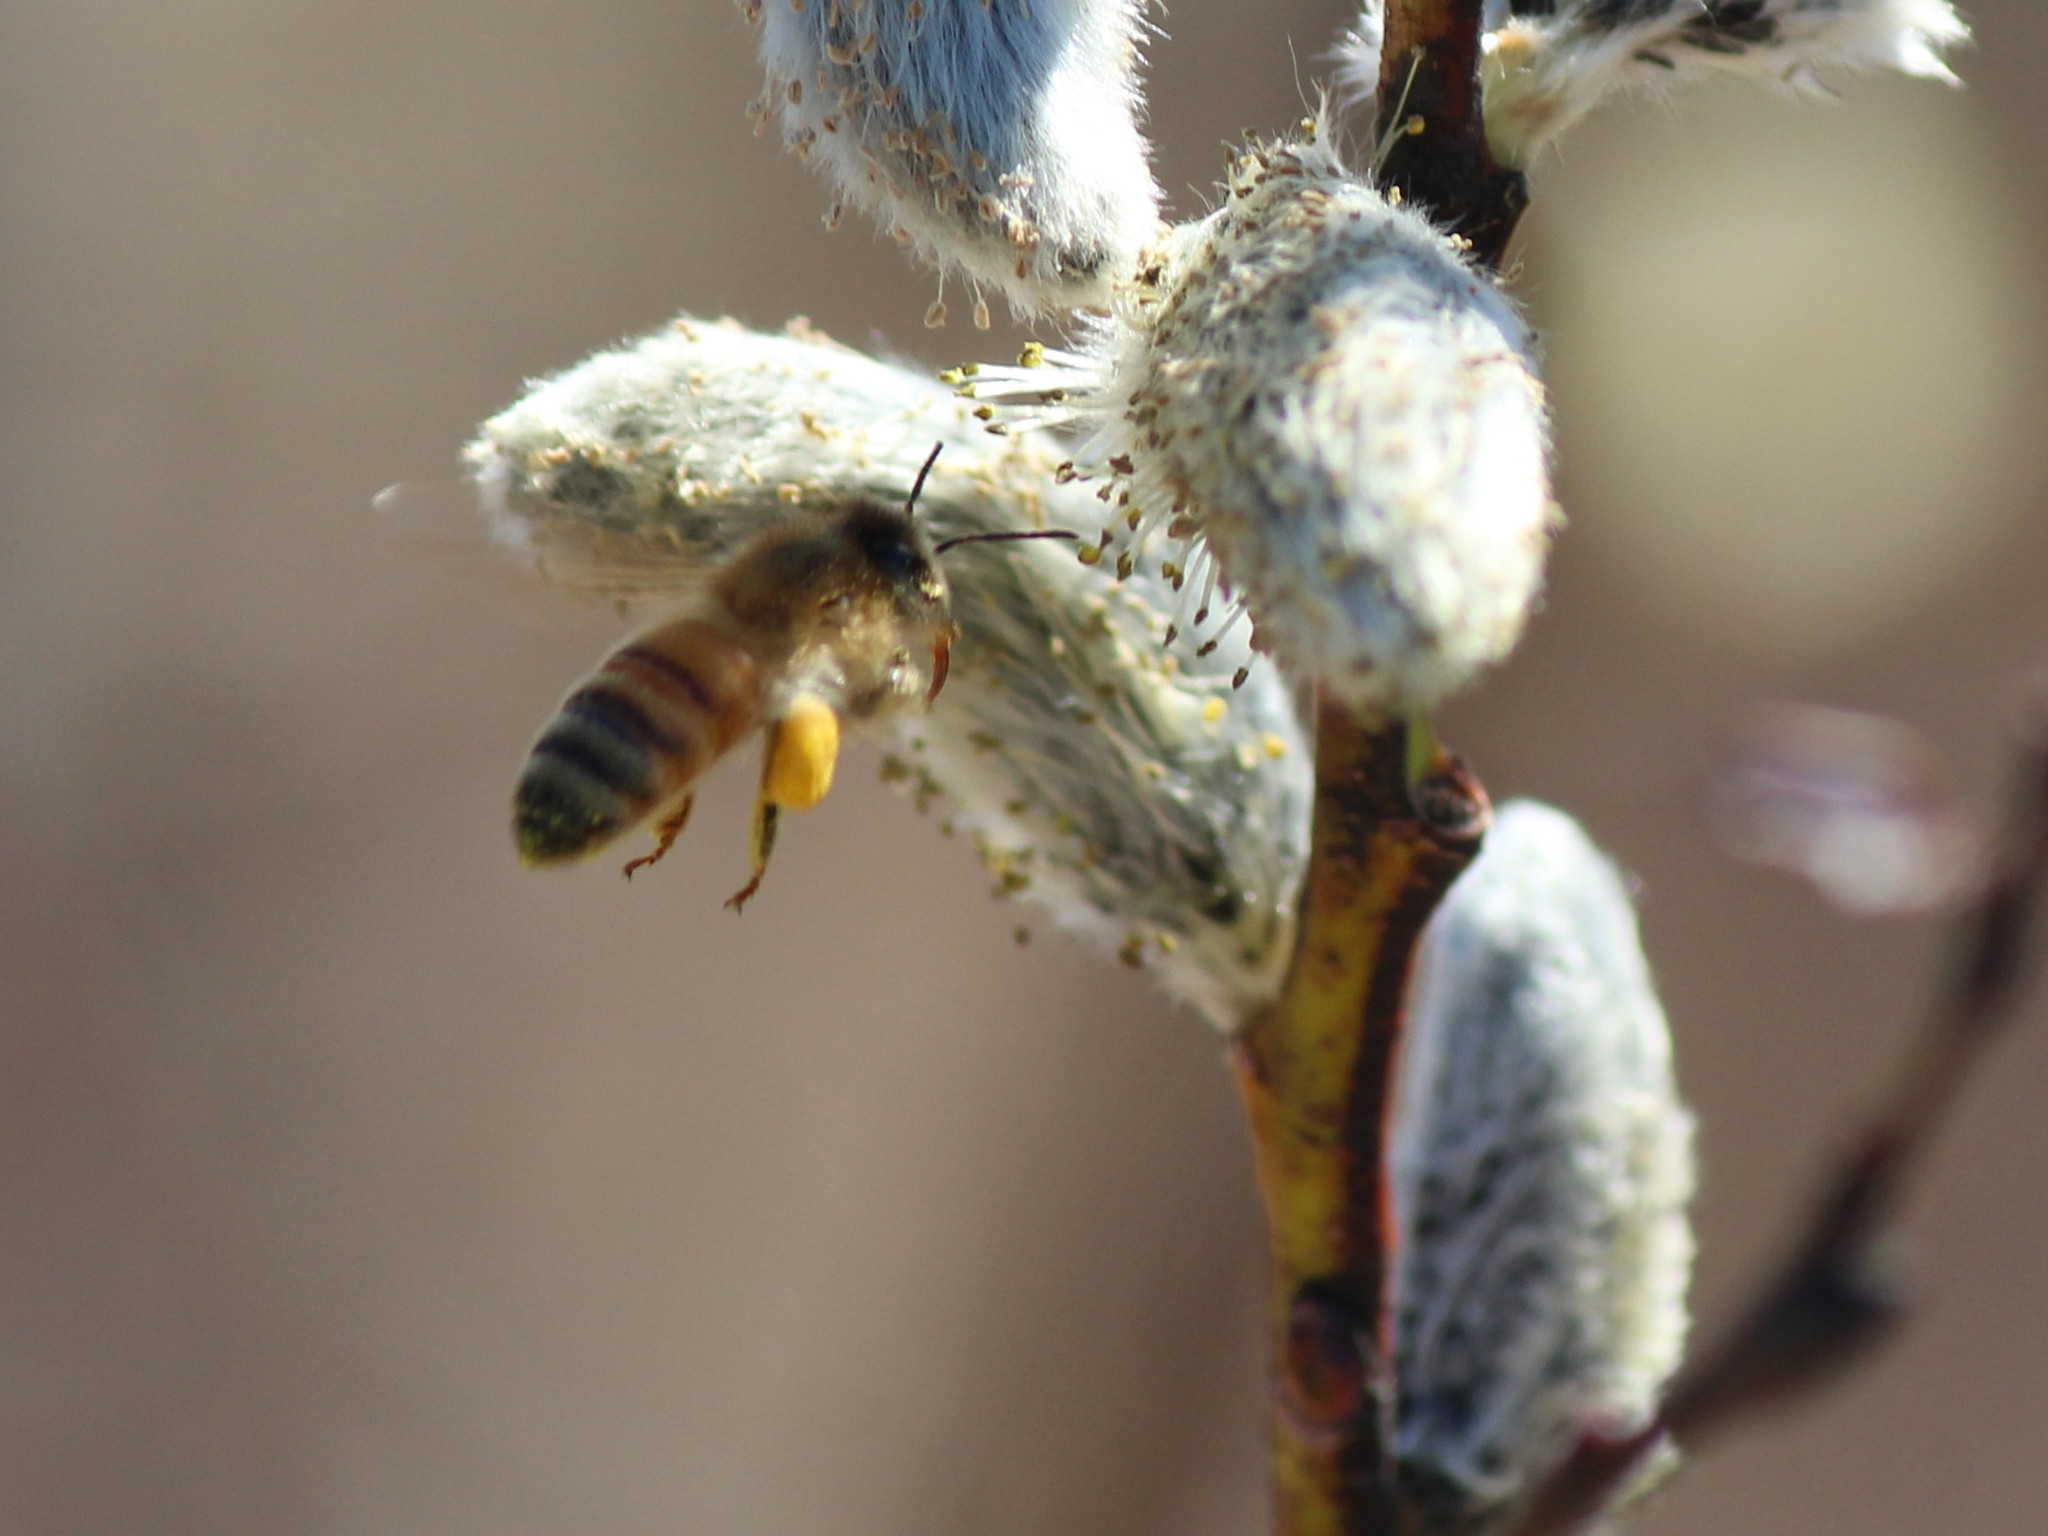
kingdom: Animalia
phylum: Arthropoda
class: Insecta
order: Hymenoptera
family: Apidae
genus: Apis
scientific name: Apis mellifera
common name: Honey bee
